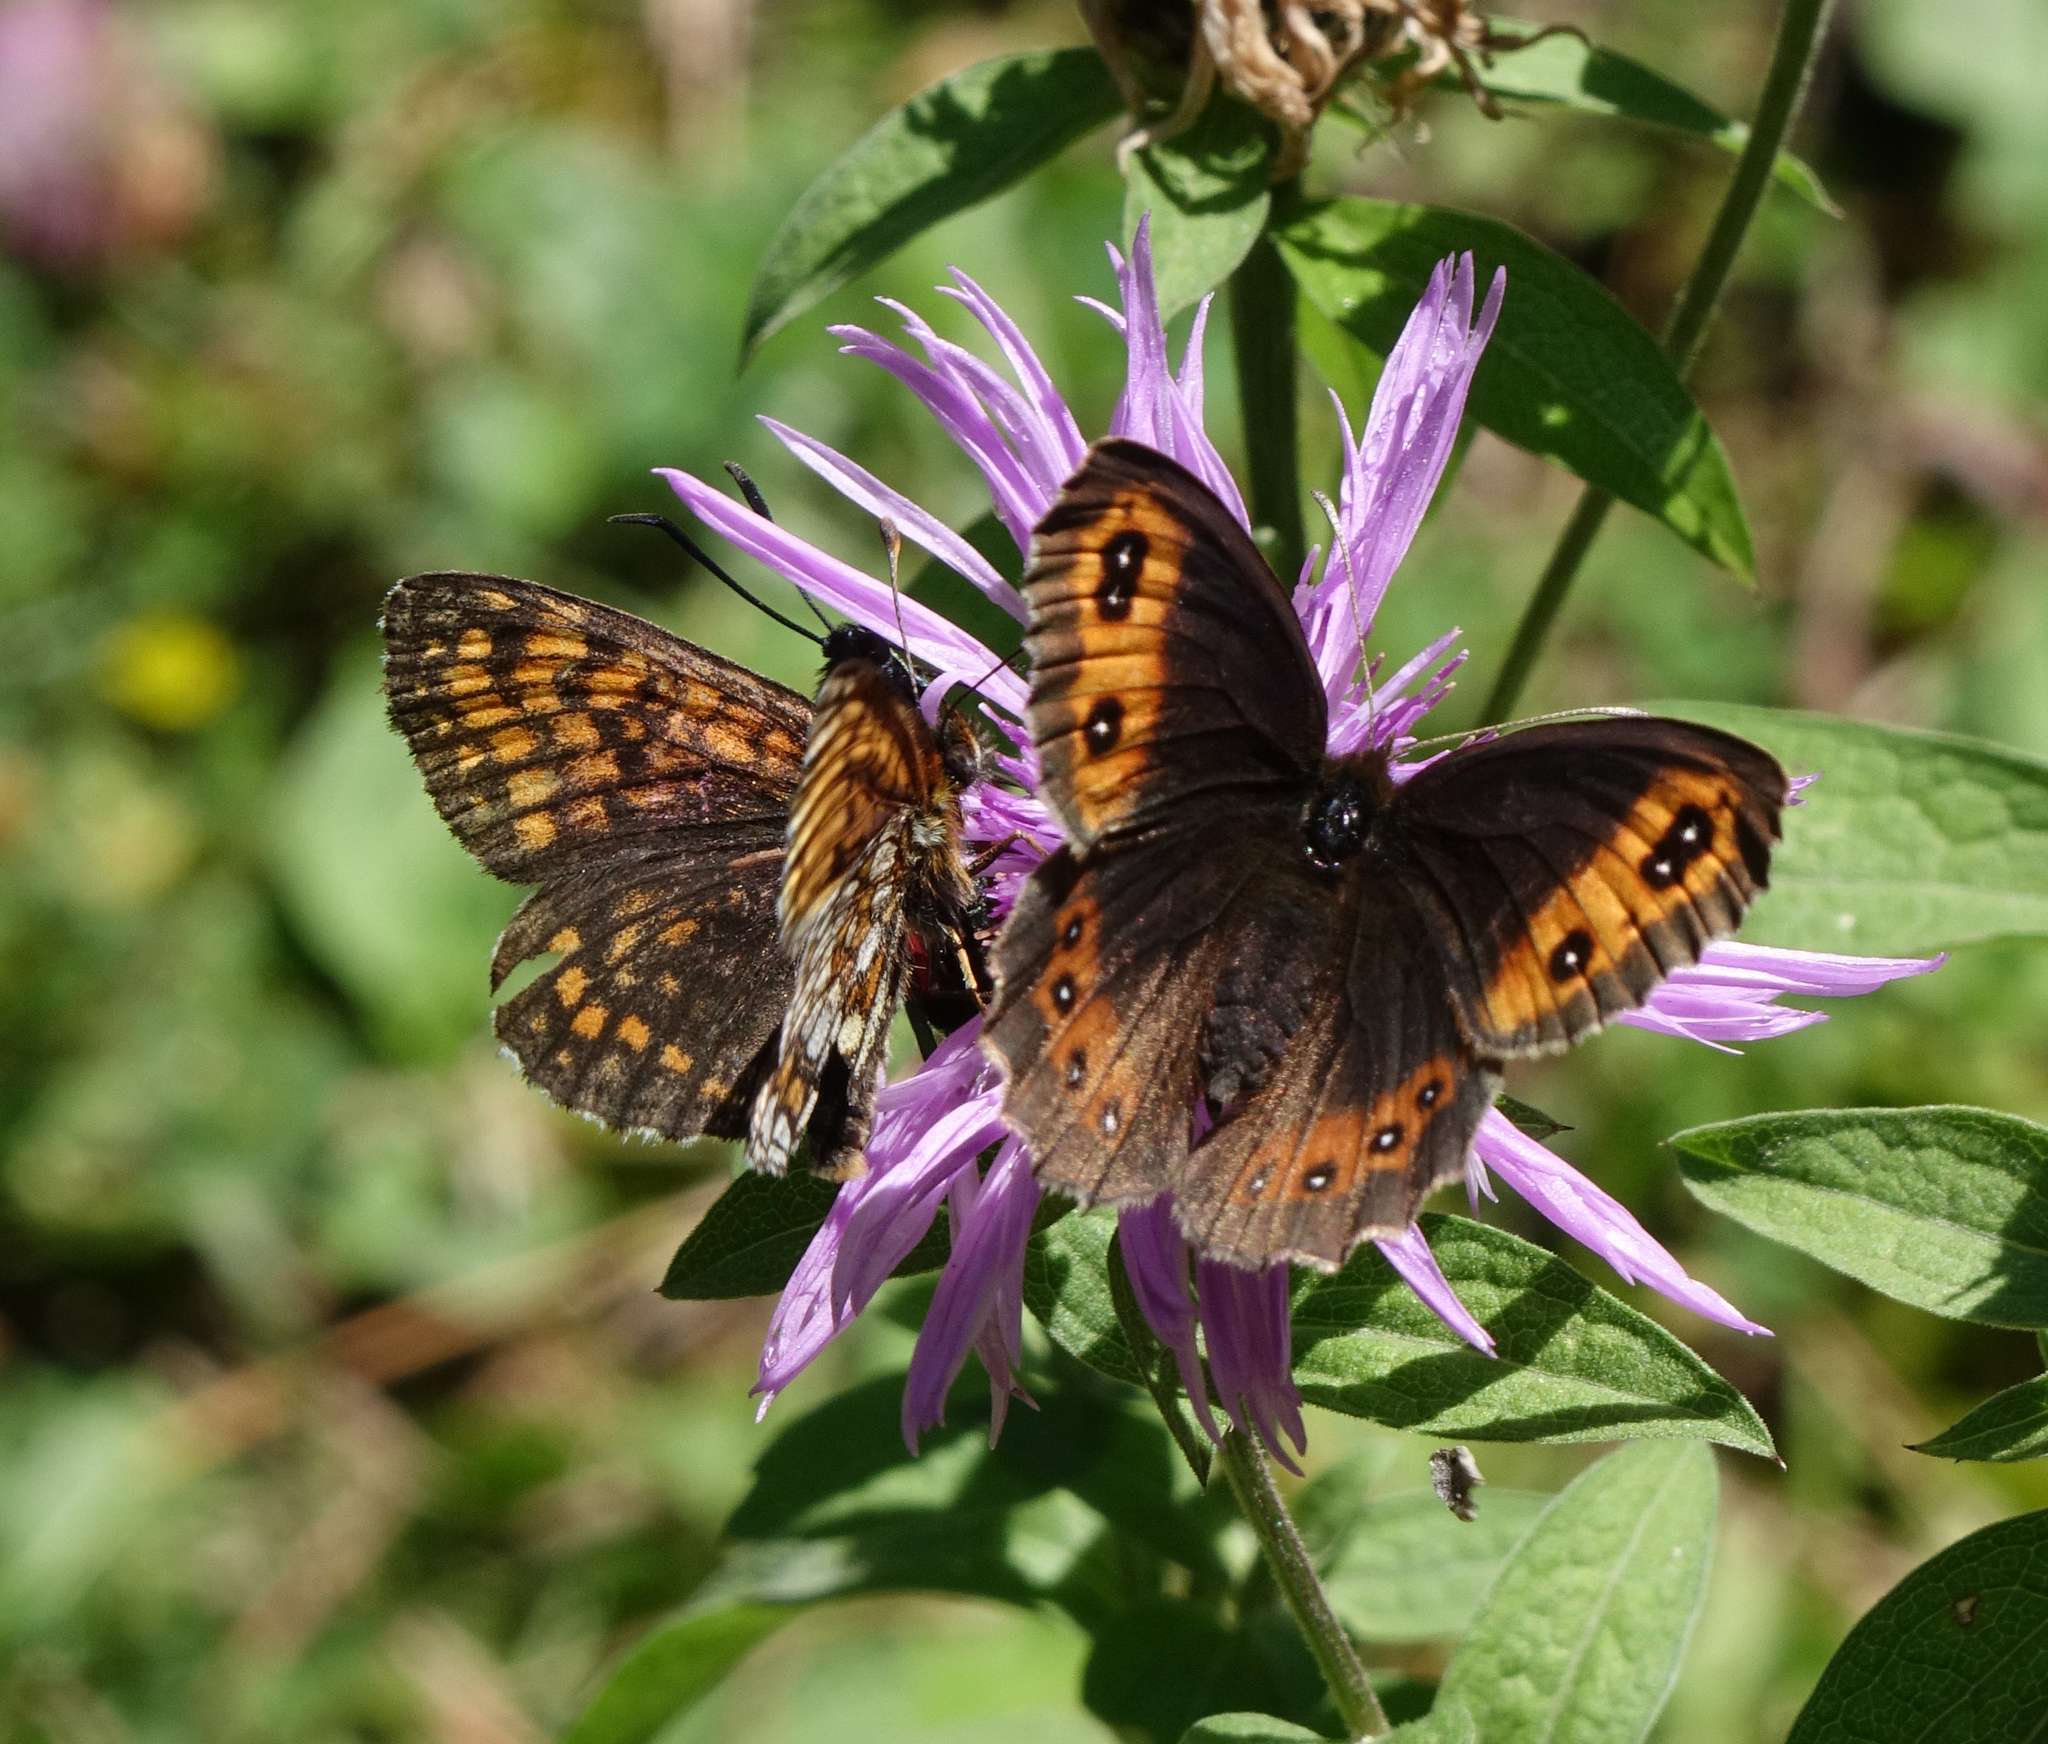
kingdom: Animalia
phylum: Arthropoda
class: Insecta
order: Lepidoptera
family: Nymphalidae
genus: Mellicta
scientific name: Mellicta athalia
